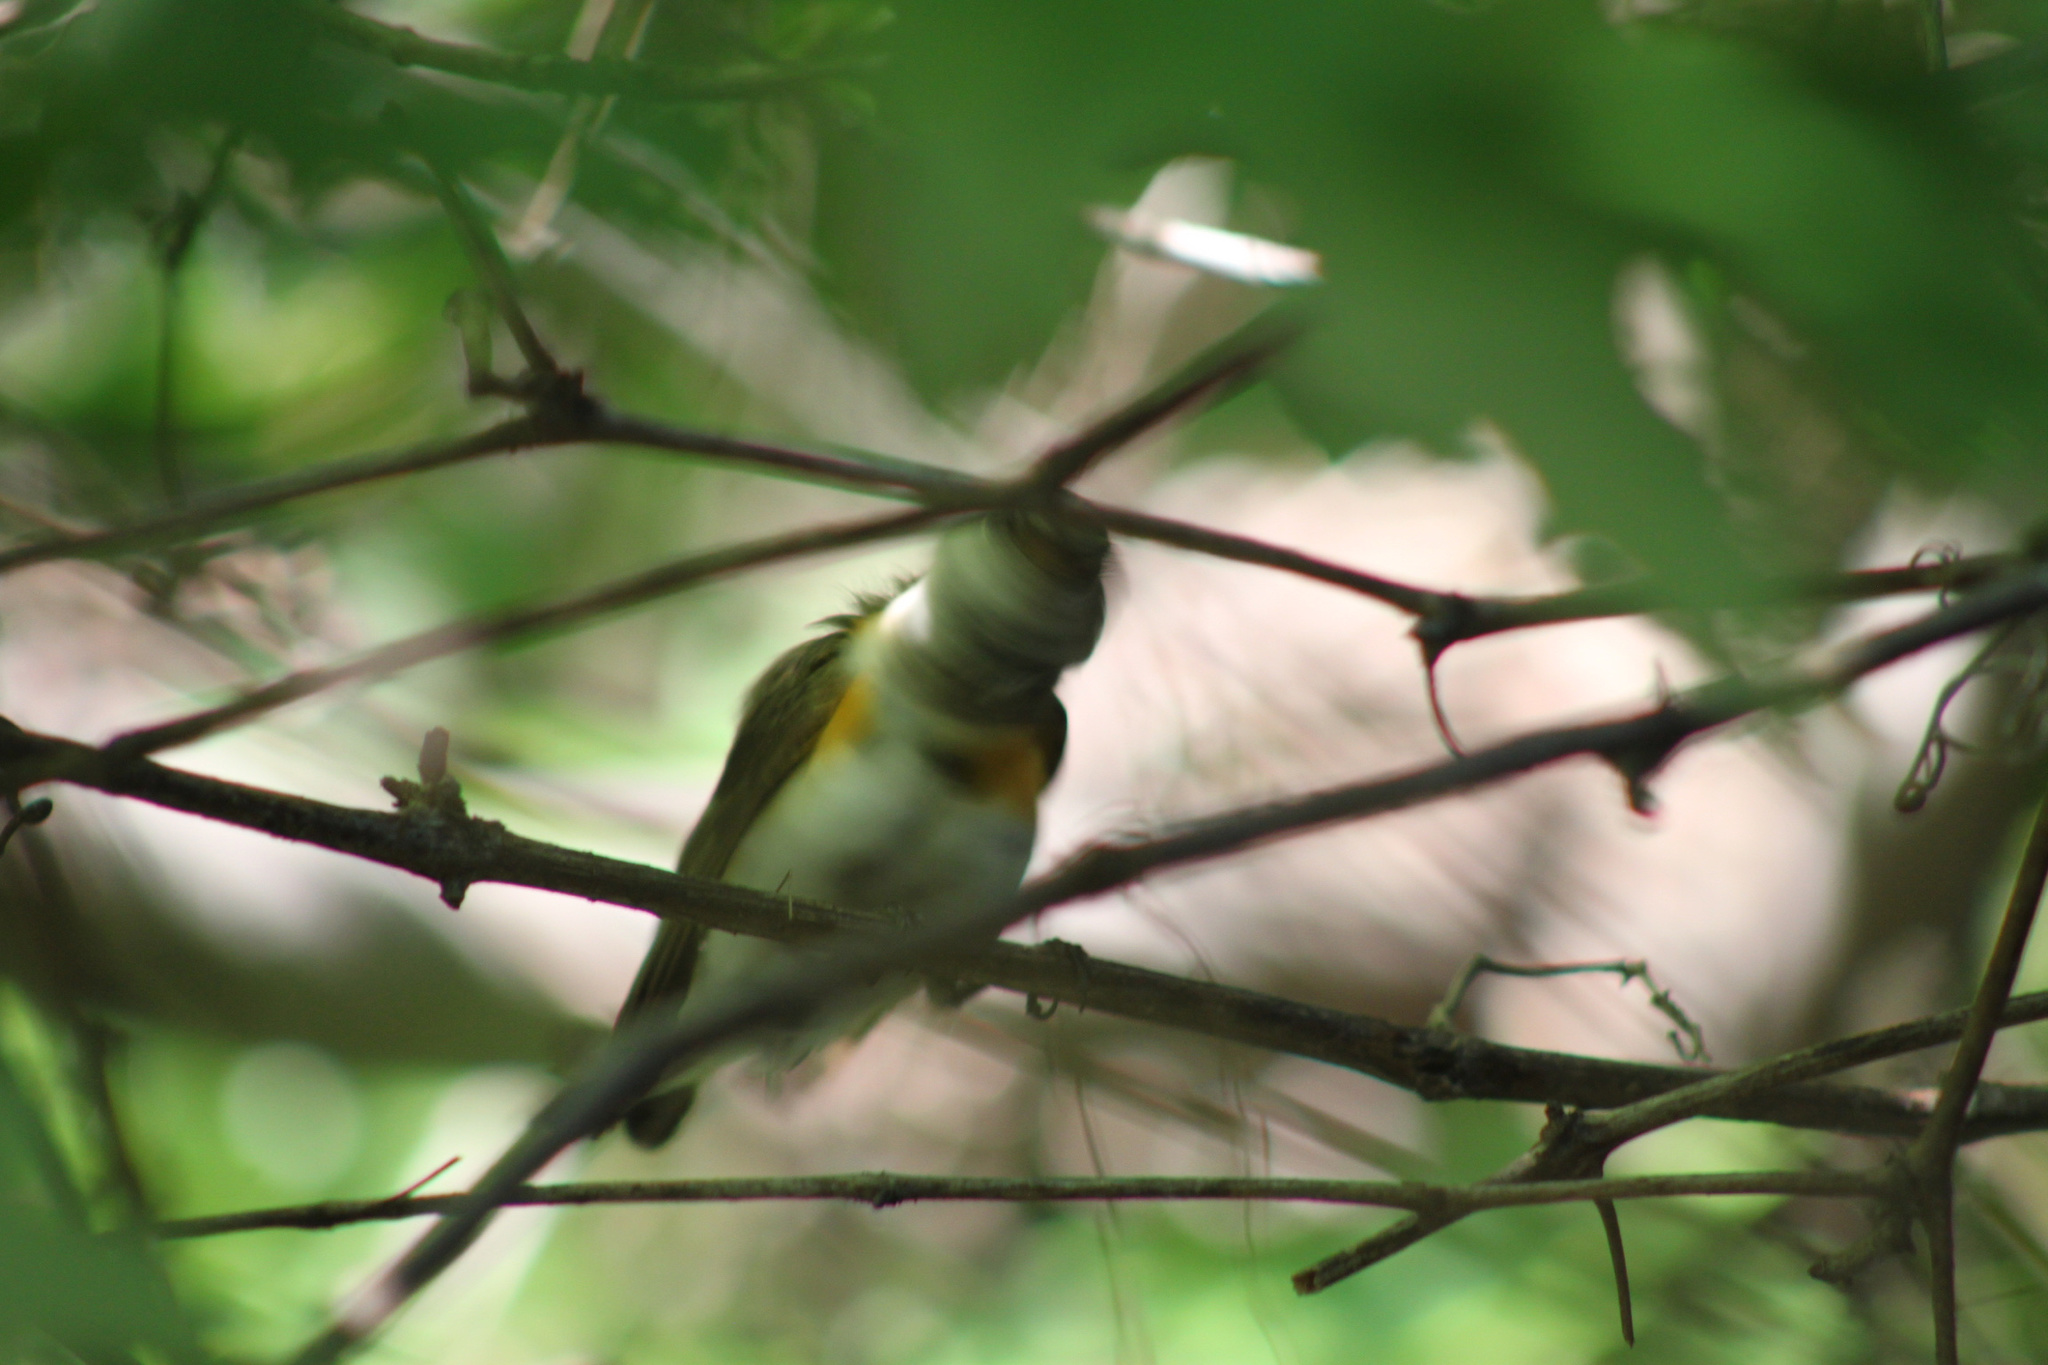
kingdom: Animalia
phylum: Chordata
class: Aves
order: Passeriformes
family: Parulidae
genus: Setophaga
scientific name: Setophaga ruticilla
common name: American redstart
